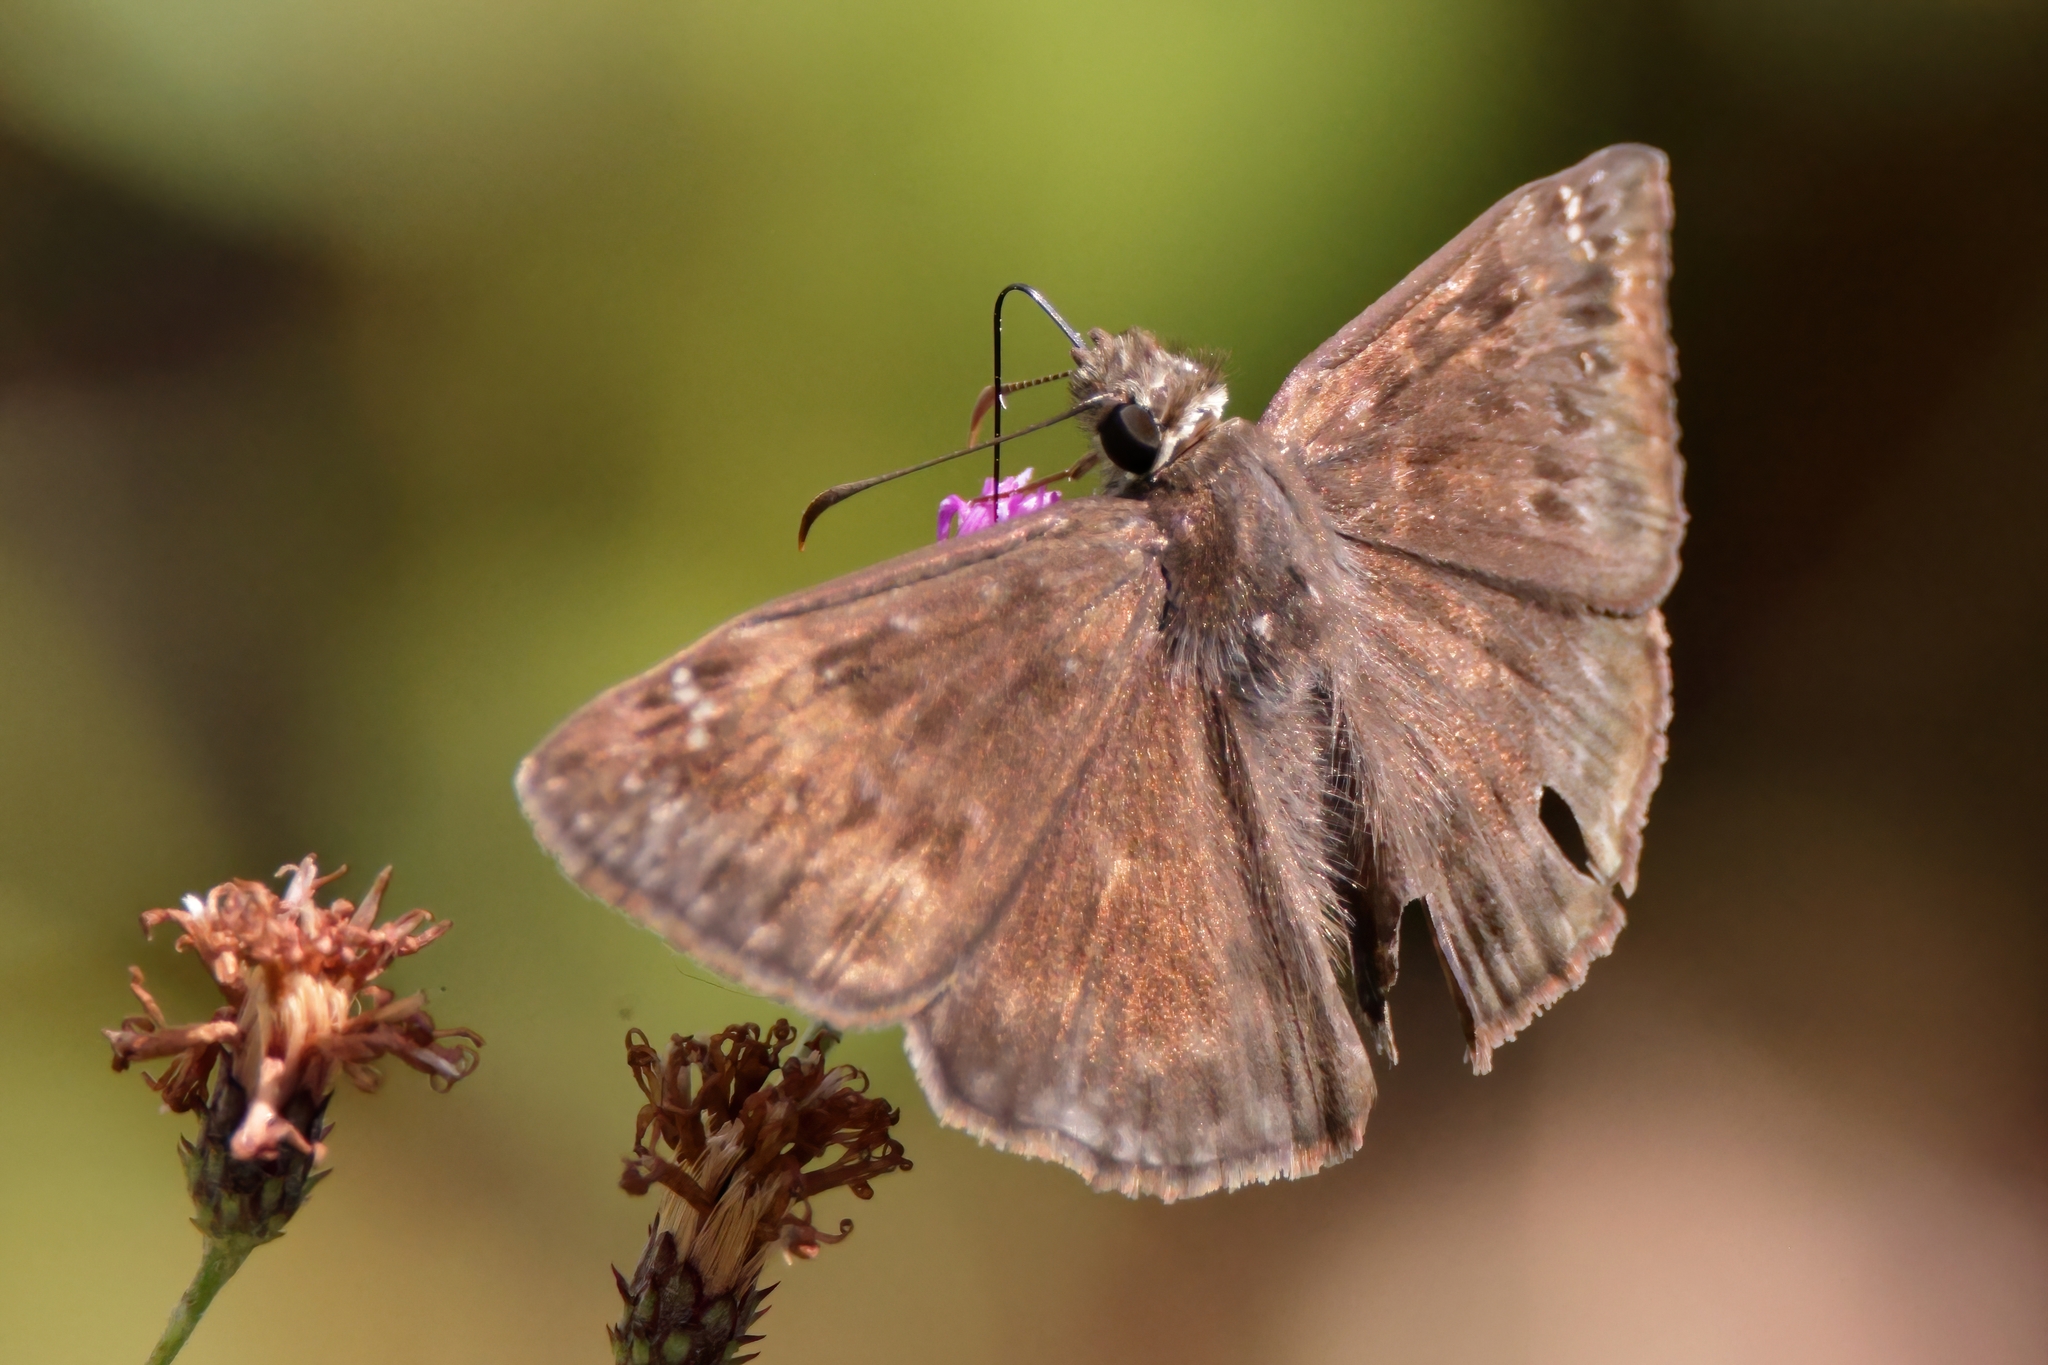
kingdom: Animalia
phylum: Arthropoda
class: Insecta
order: Lepidoptera
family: Hesperiidae
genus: Erynnis
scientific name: Erynnis horatius
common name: Horace's duskywing
